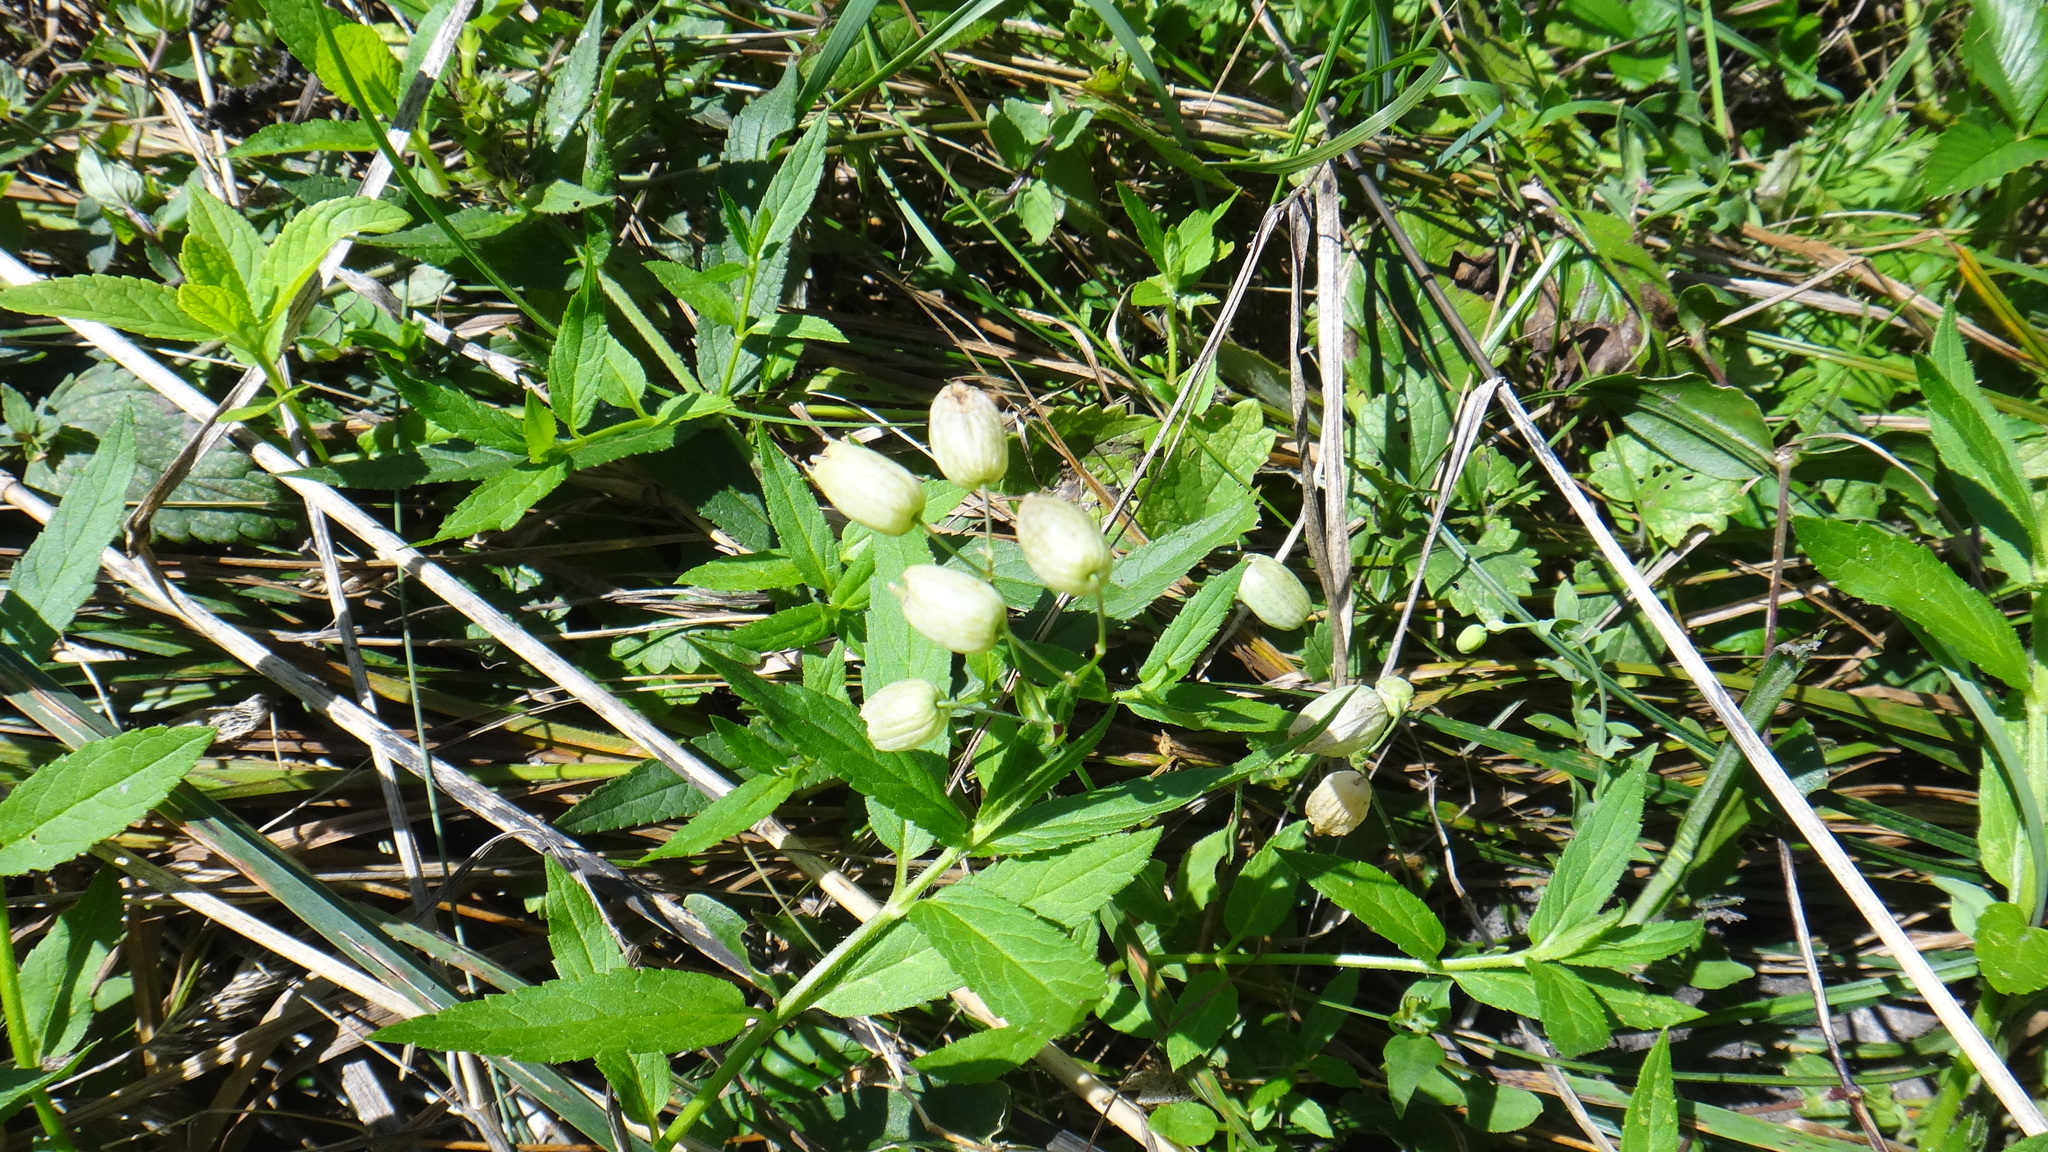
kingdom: Plantae
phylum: Tracheophyta
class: Magnoliopsida
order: Caryophyllales
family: Caryophyllaceae
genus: Silene
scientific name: Silene vulgaris
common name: Bladder campion
